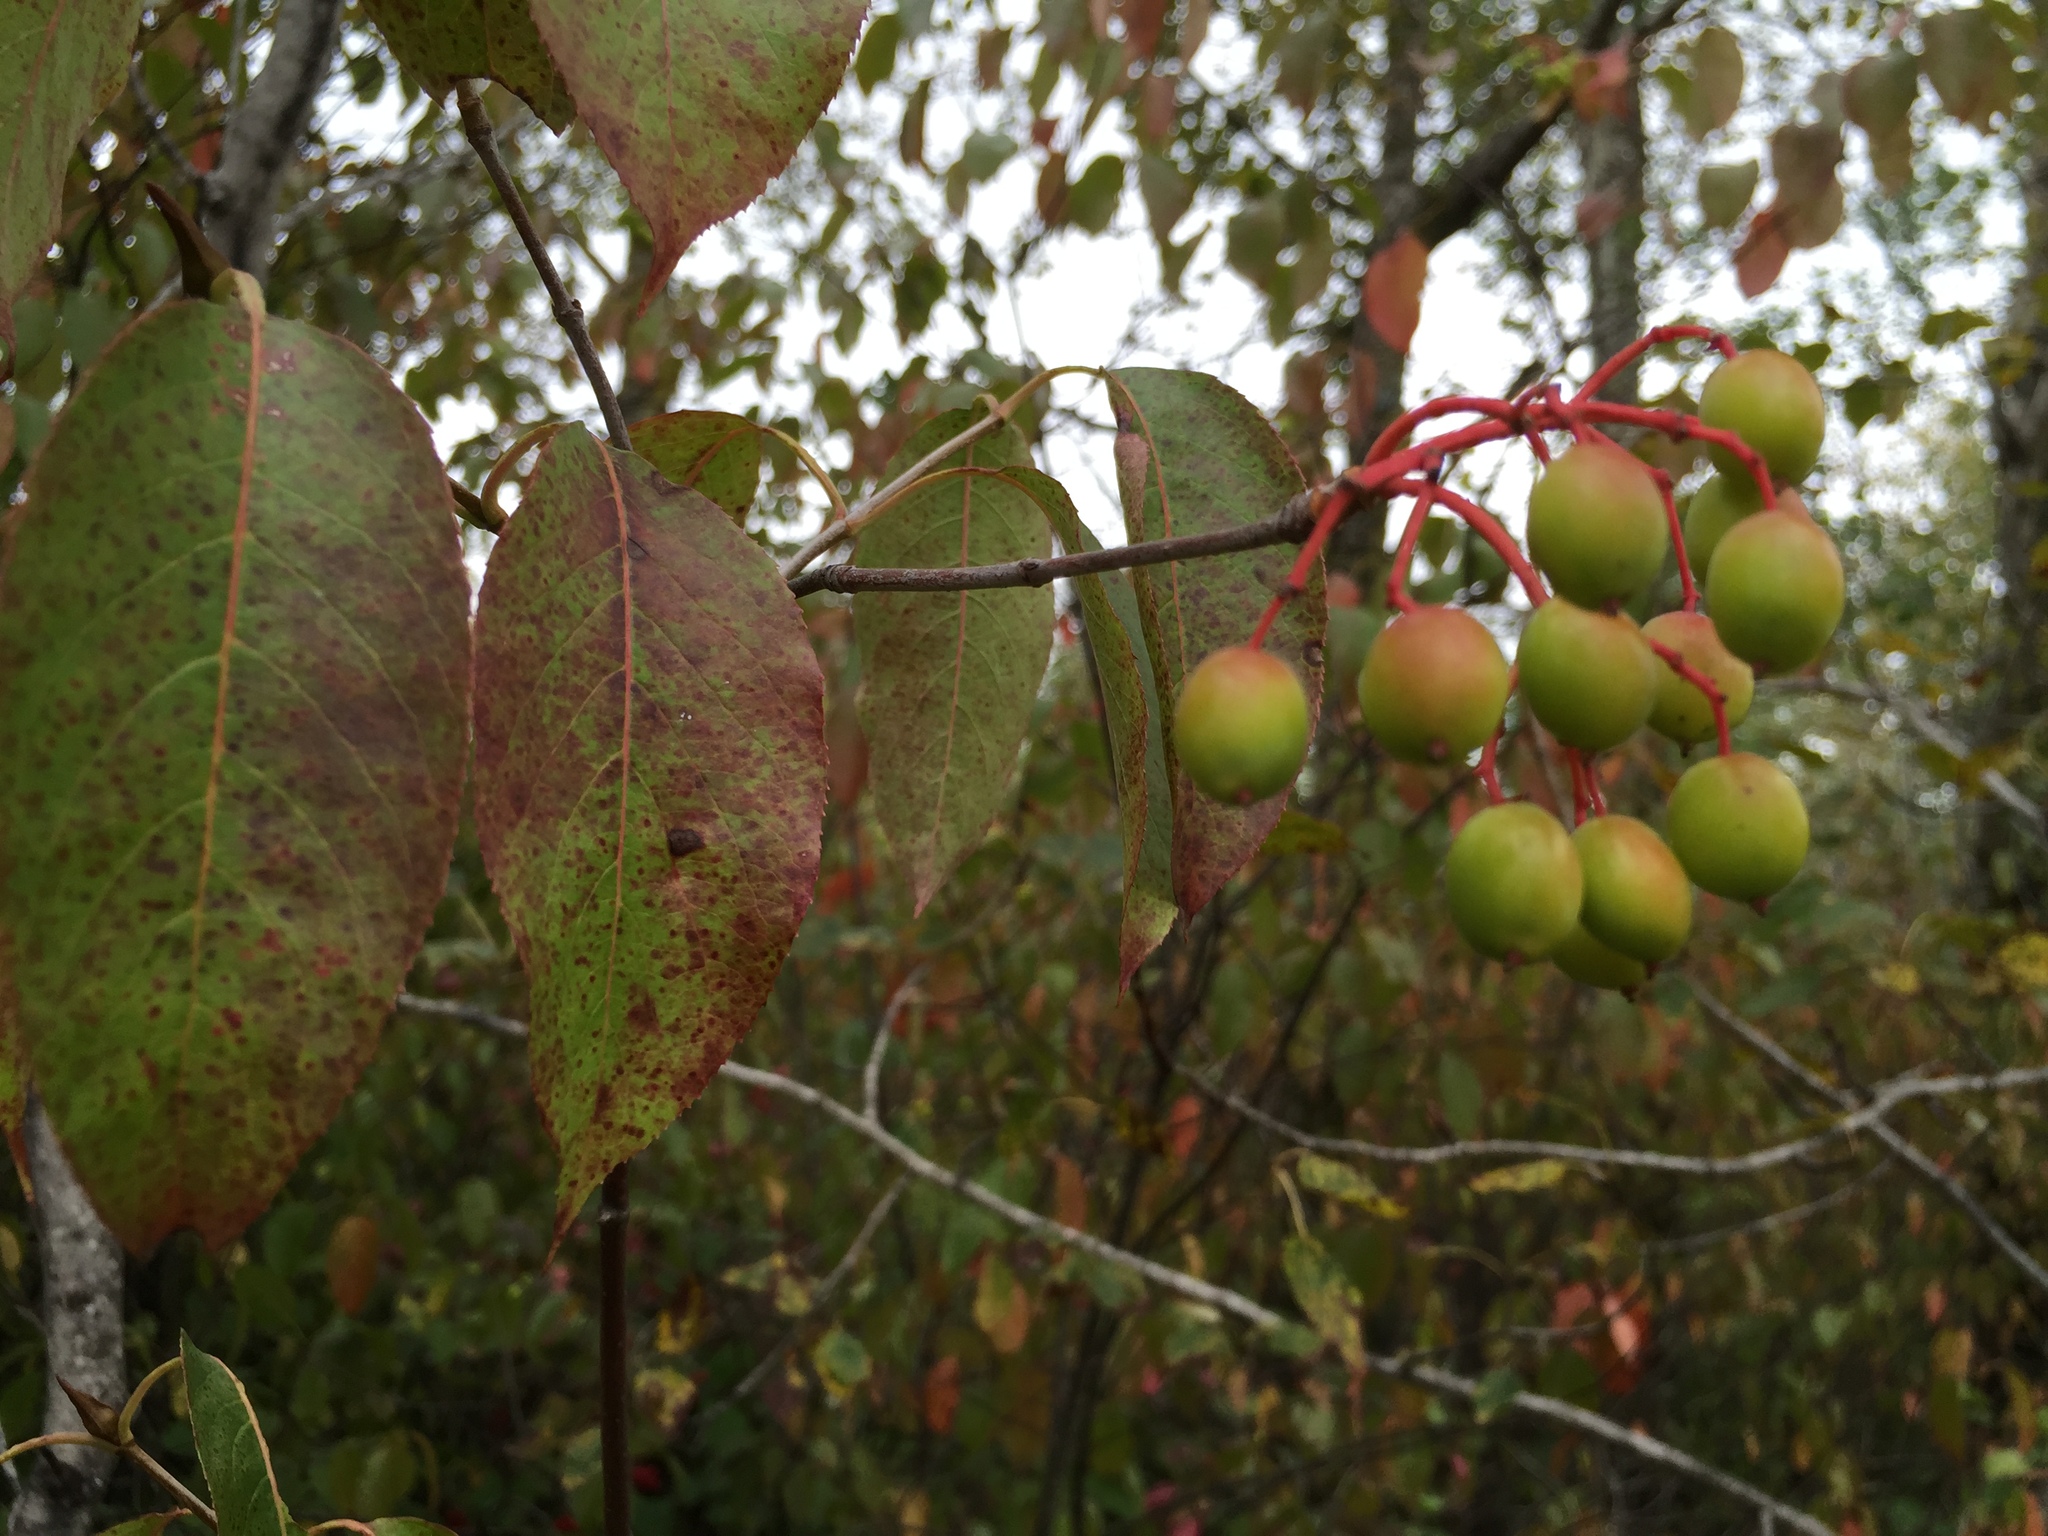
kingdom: Plantae
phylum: Tracheophyta
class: Magnoliopsida
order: Dipsacales
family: Viburnaceae
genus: Viburnum
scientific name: Viburnum lentago
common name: Black haw
